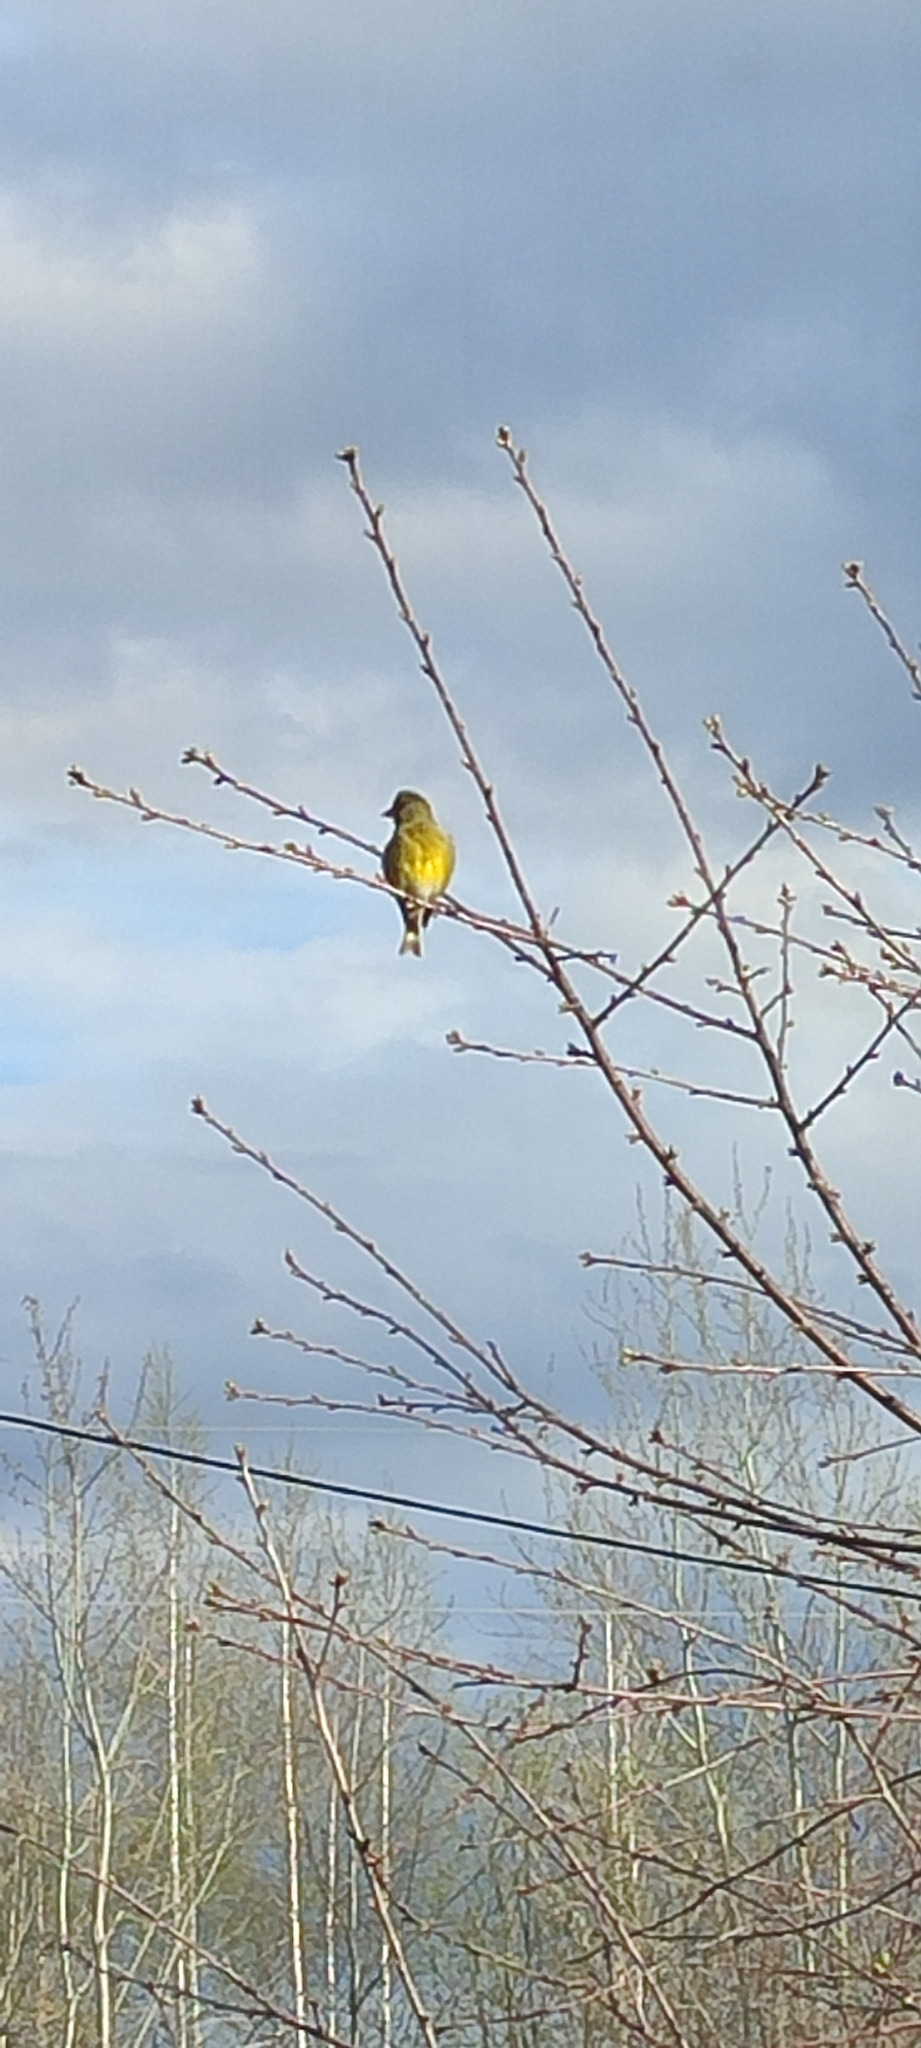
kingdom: Plantae
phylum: Tracheophyta
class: Liliopsida
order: Poales
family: Poaceae
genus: Chloris
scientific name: Chloris chloris
